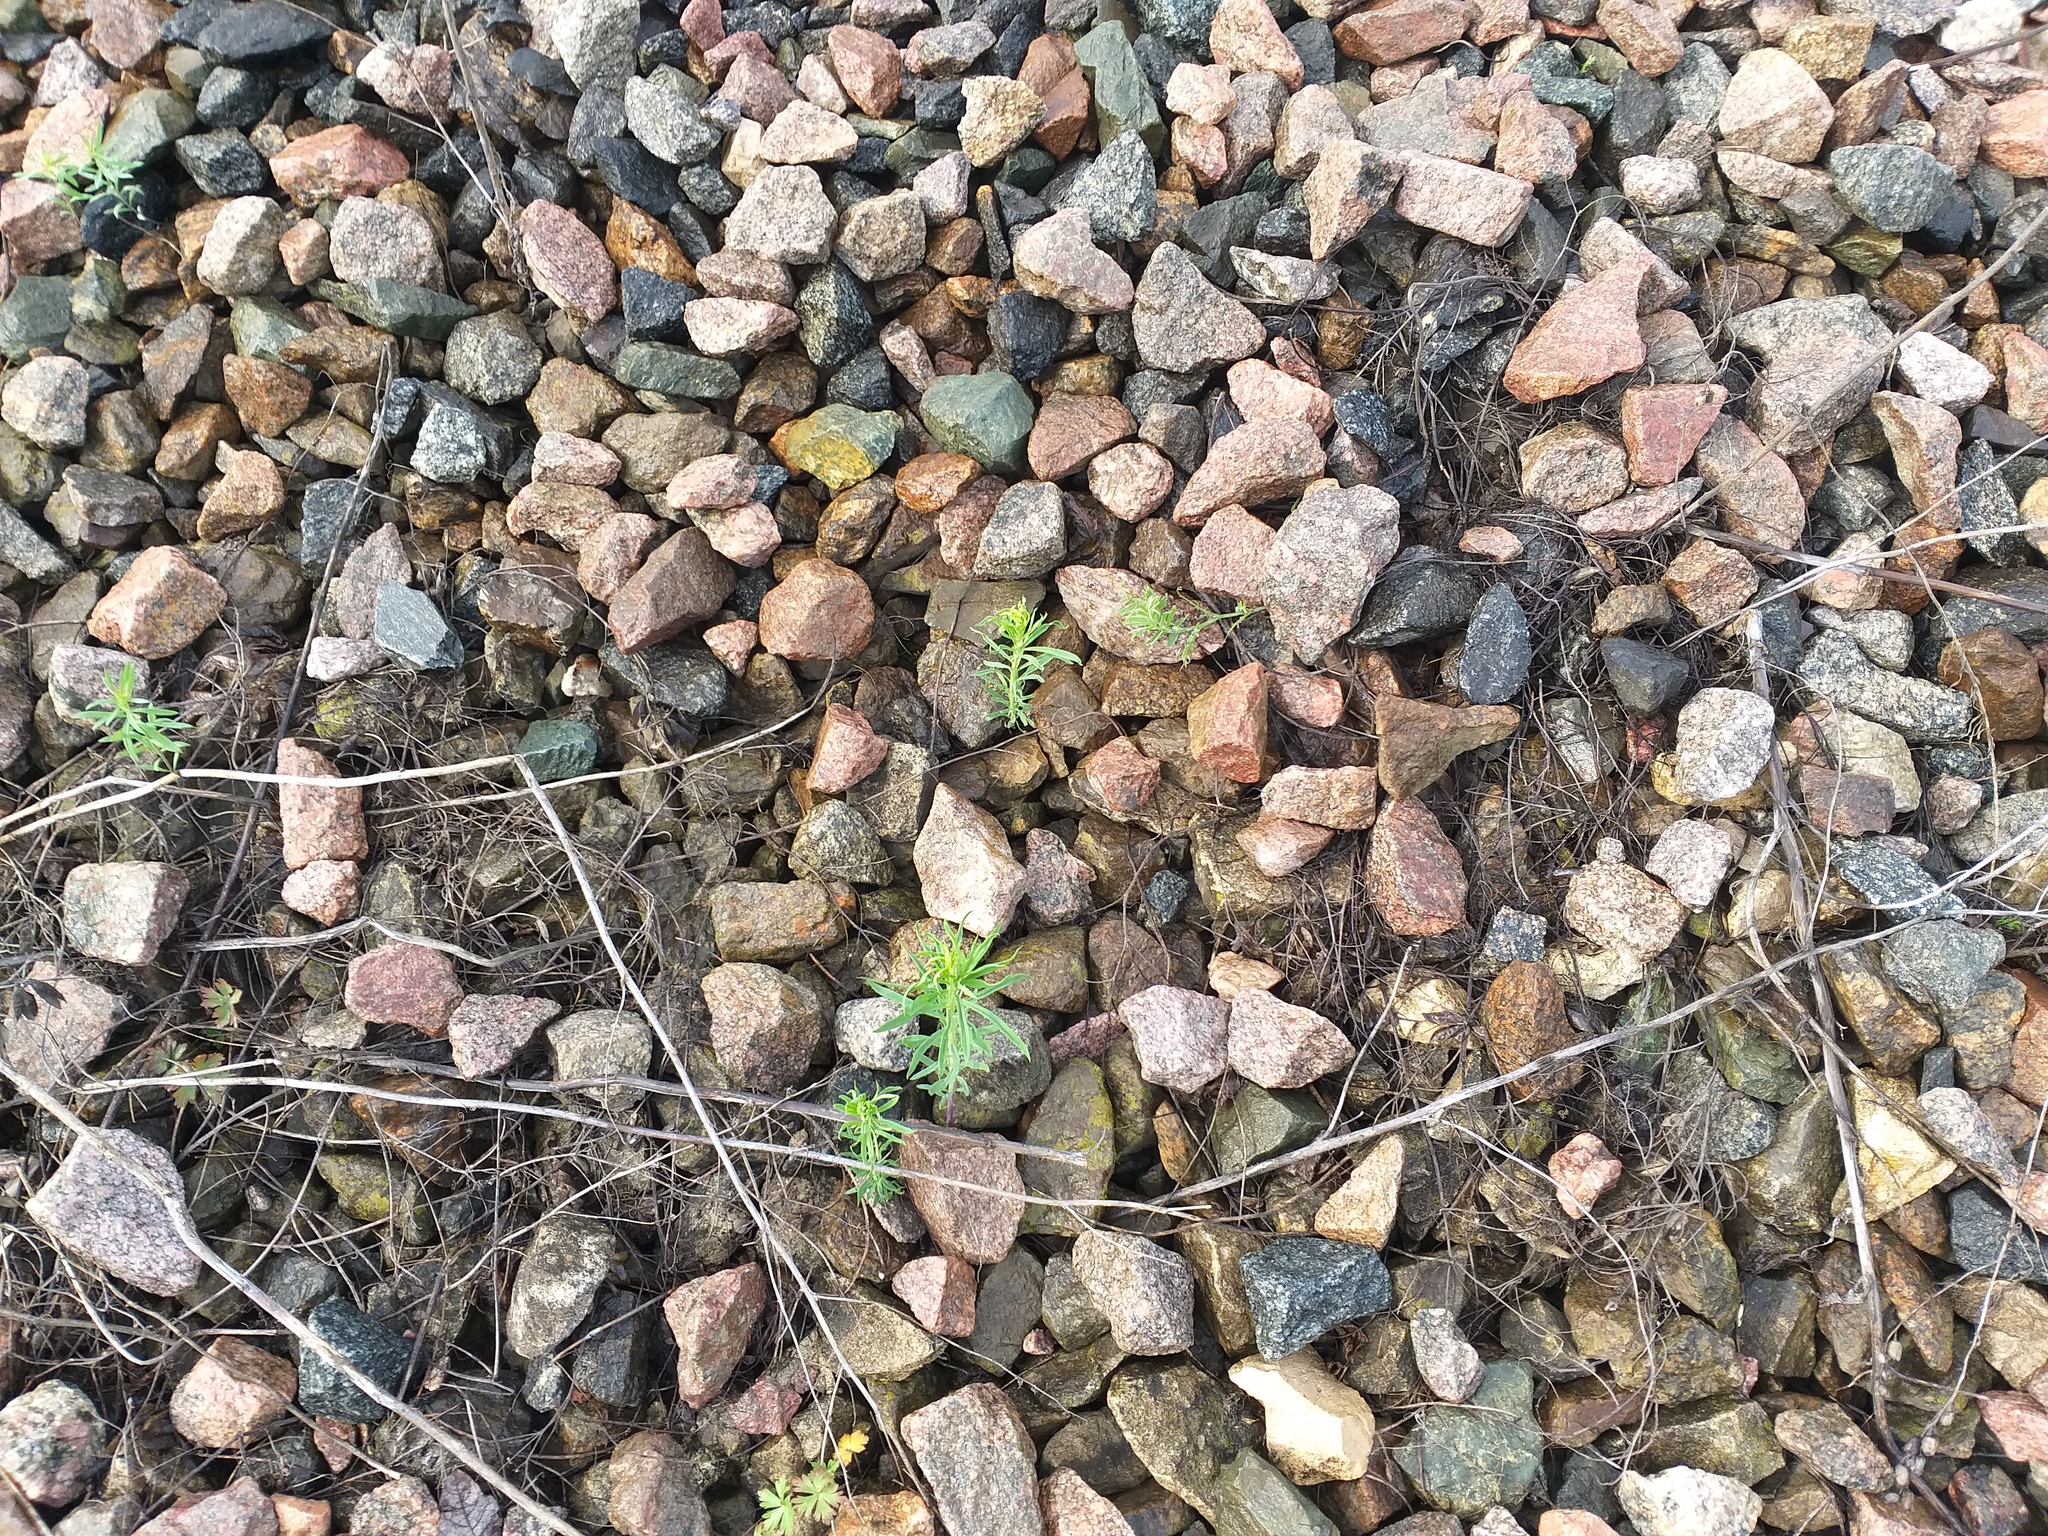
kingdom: Plantae
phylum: Tracheophyta
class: Magnoliopsida
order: Lamiales
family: Plantaginaceae
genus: Linaria
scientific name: Linaria vulgaris
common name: Butter and eggs
